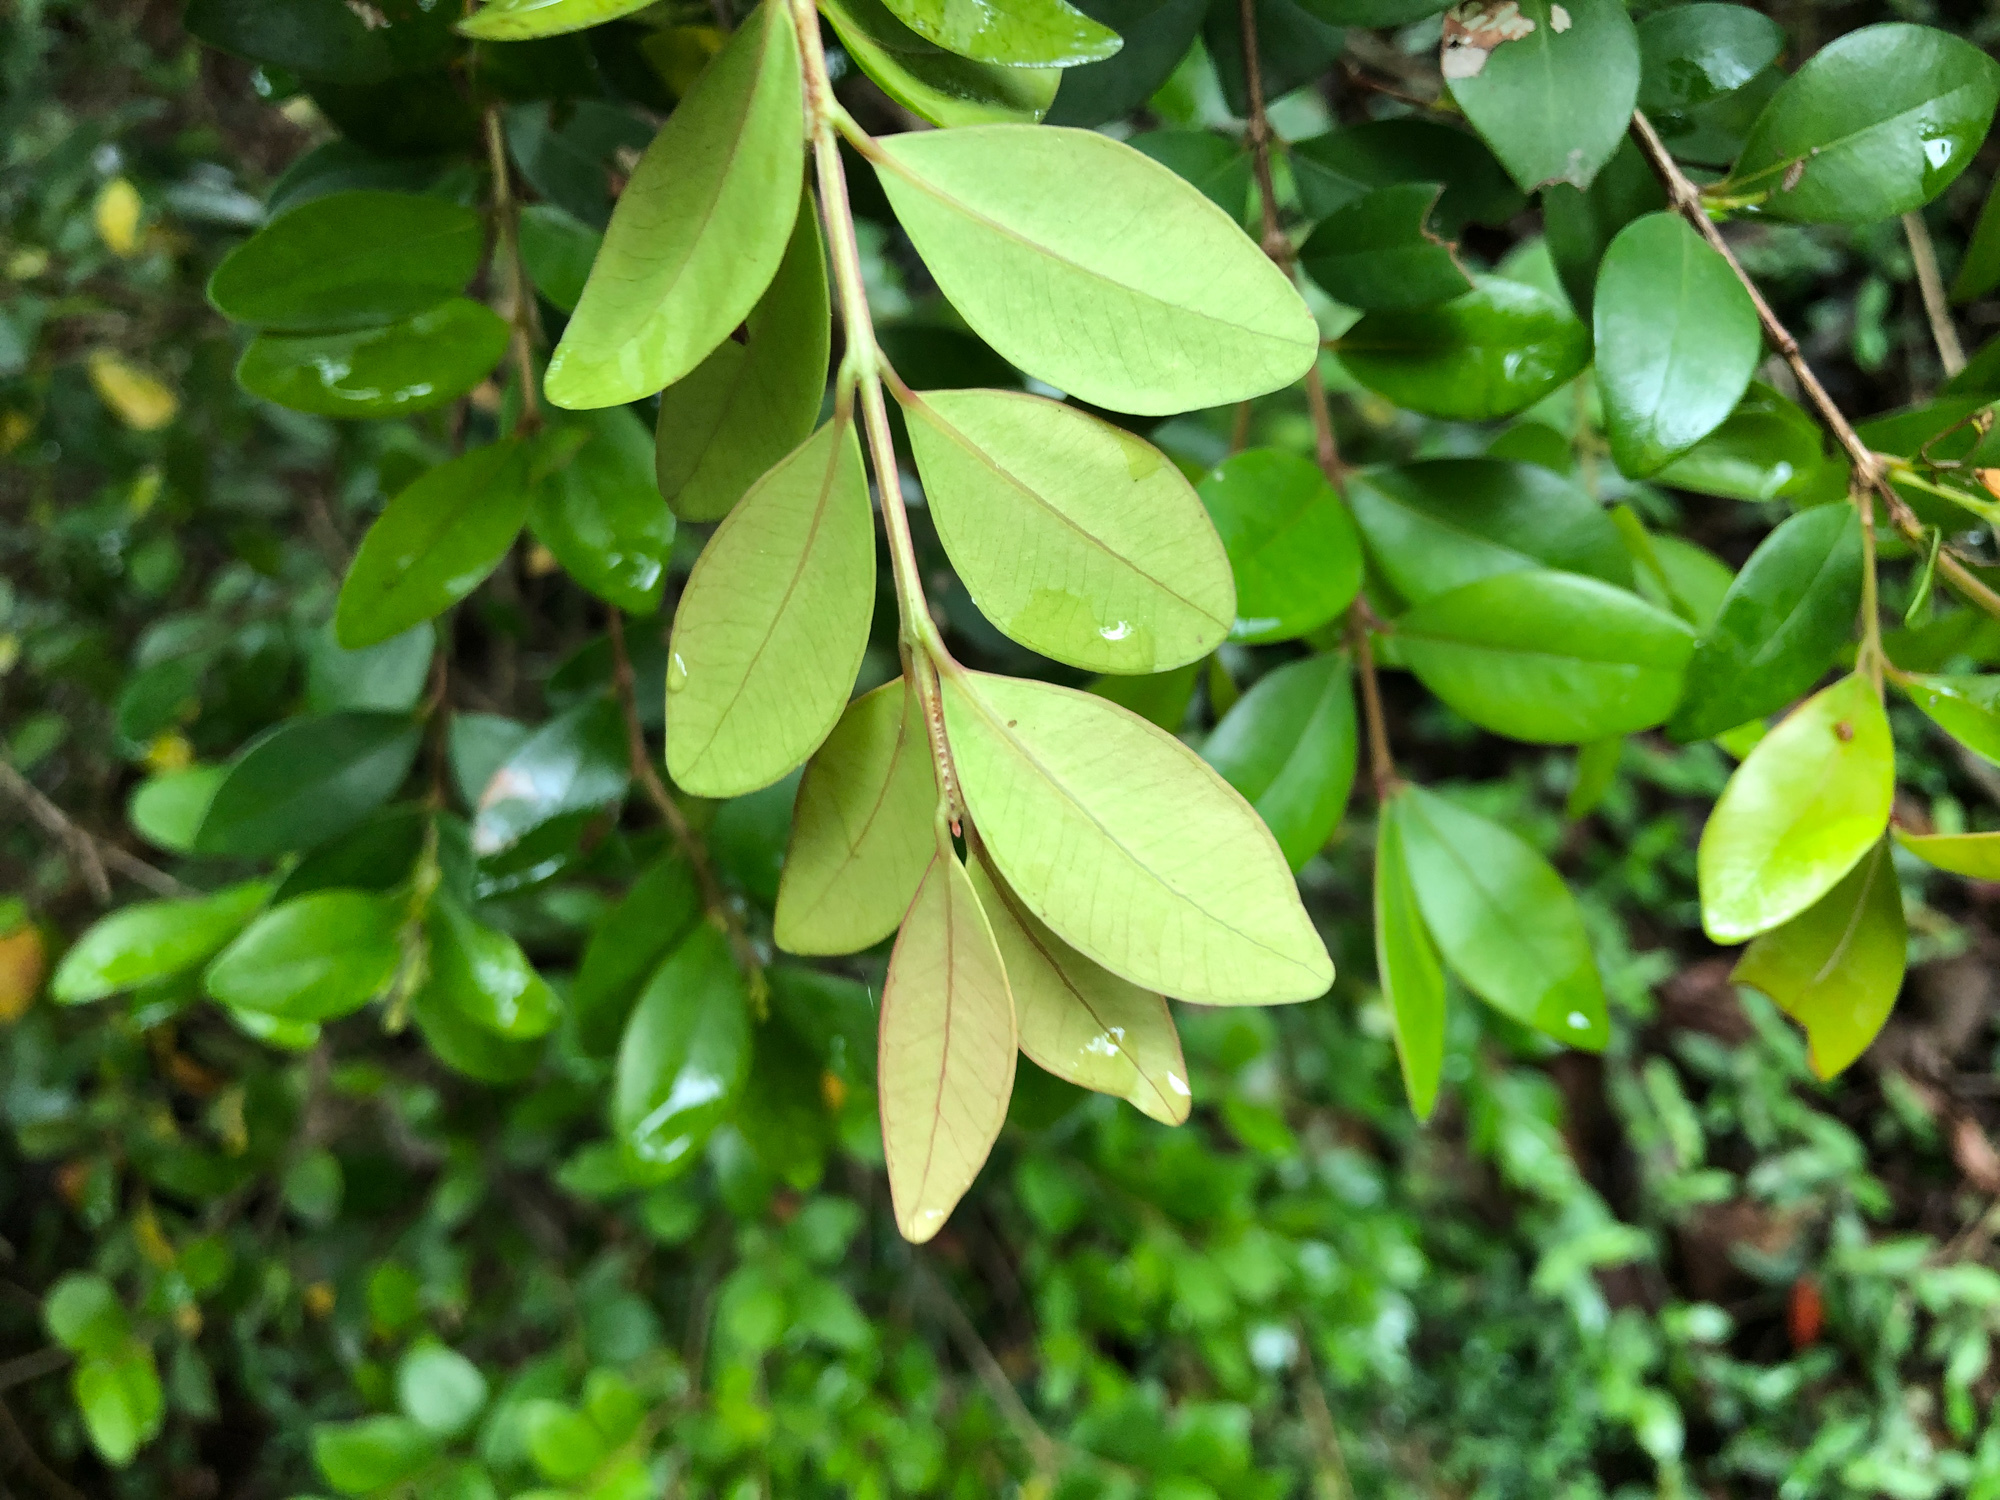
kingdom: Plantae
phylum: Tracheophyta
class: Magnoliopsida
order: Myrtales
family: Myrtaceae
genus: Syzygium
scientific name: Syzygium buxifolium
